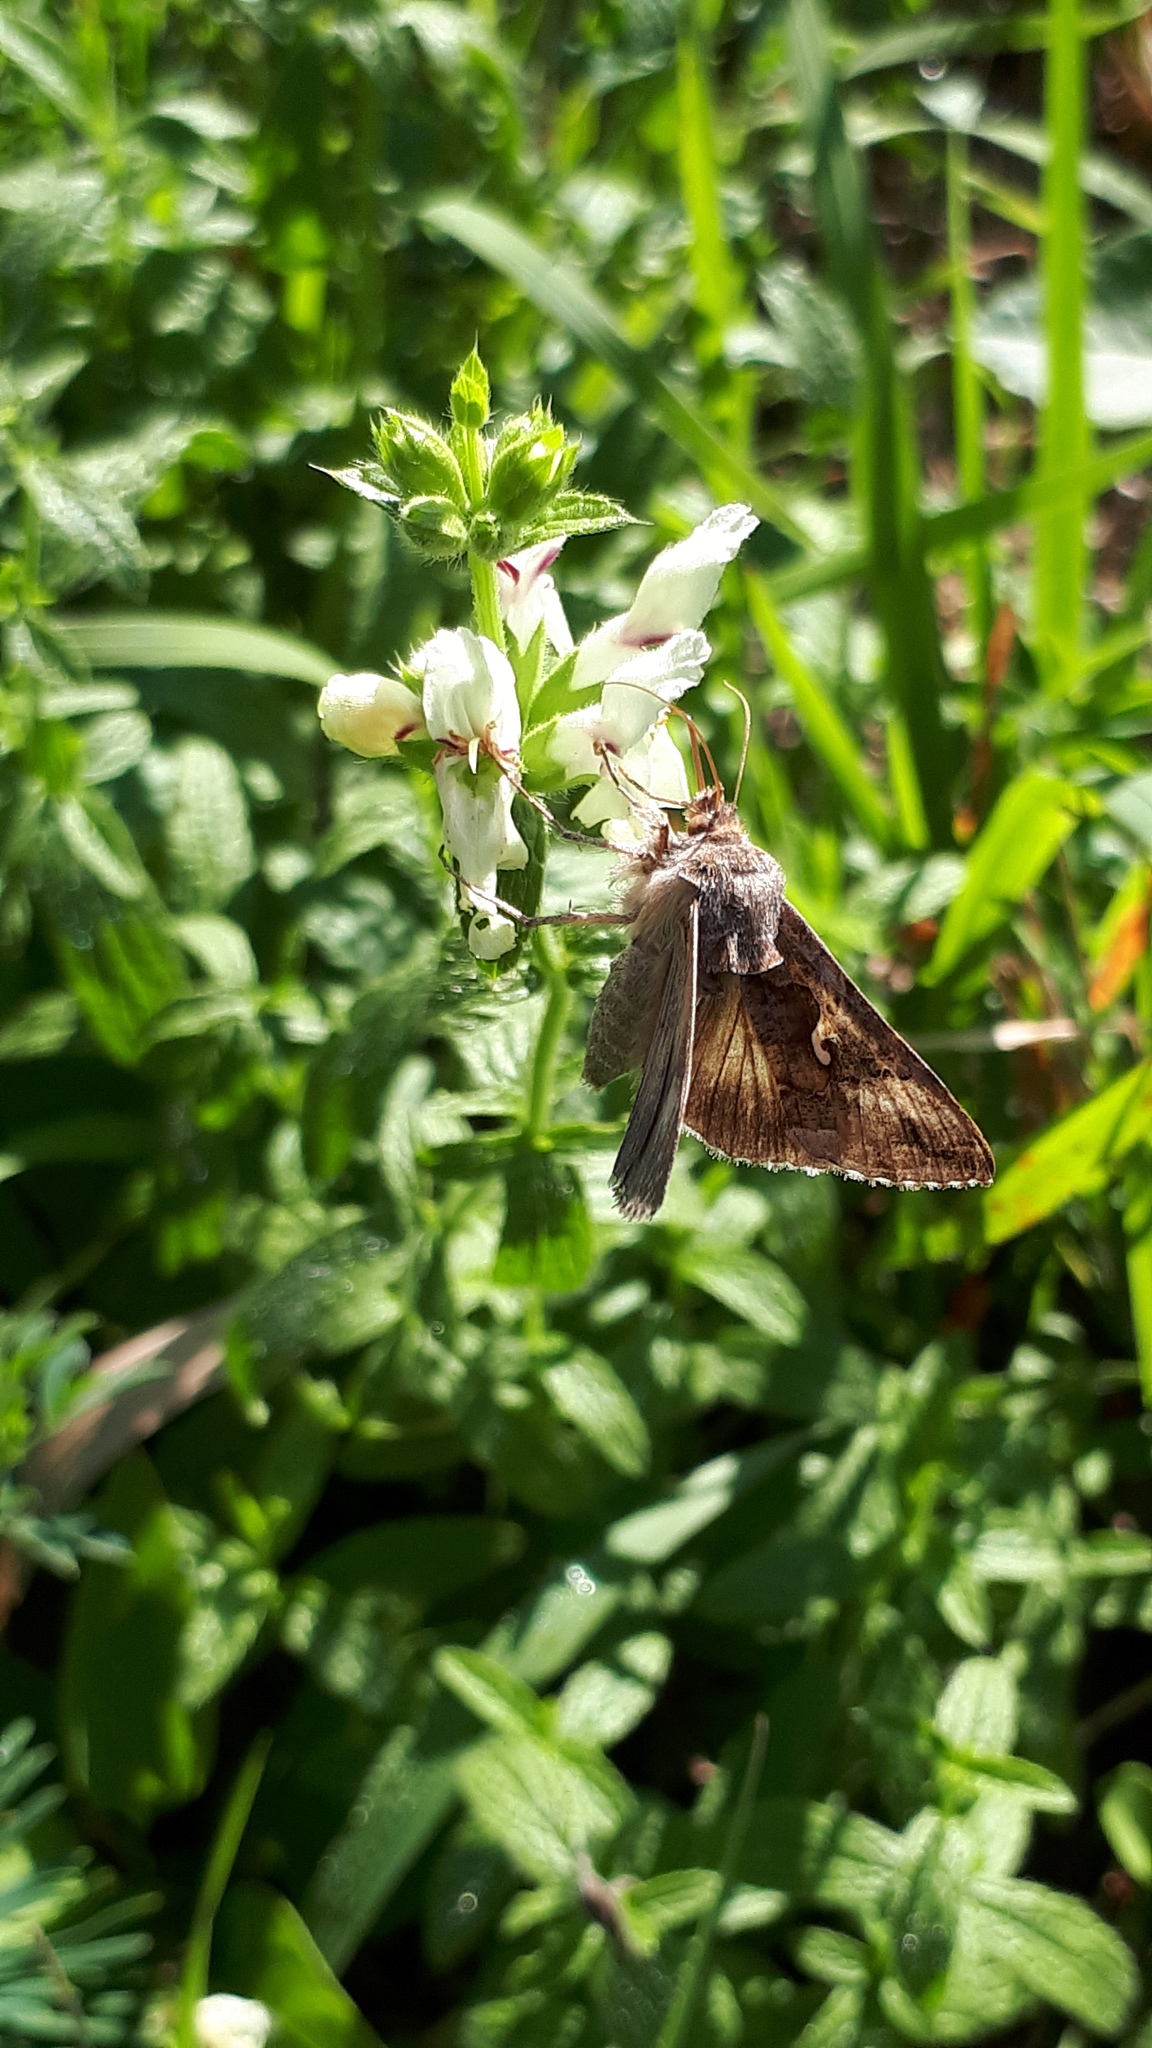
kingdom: Animalia
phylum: Arthropoda
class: Insecta
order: Lepidoptera
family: Noctuidae
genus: Autographa
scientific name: Autographa gamma
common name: Silver y
